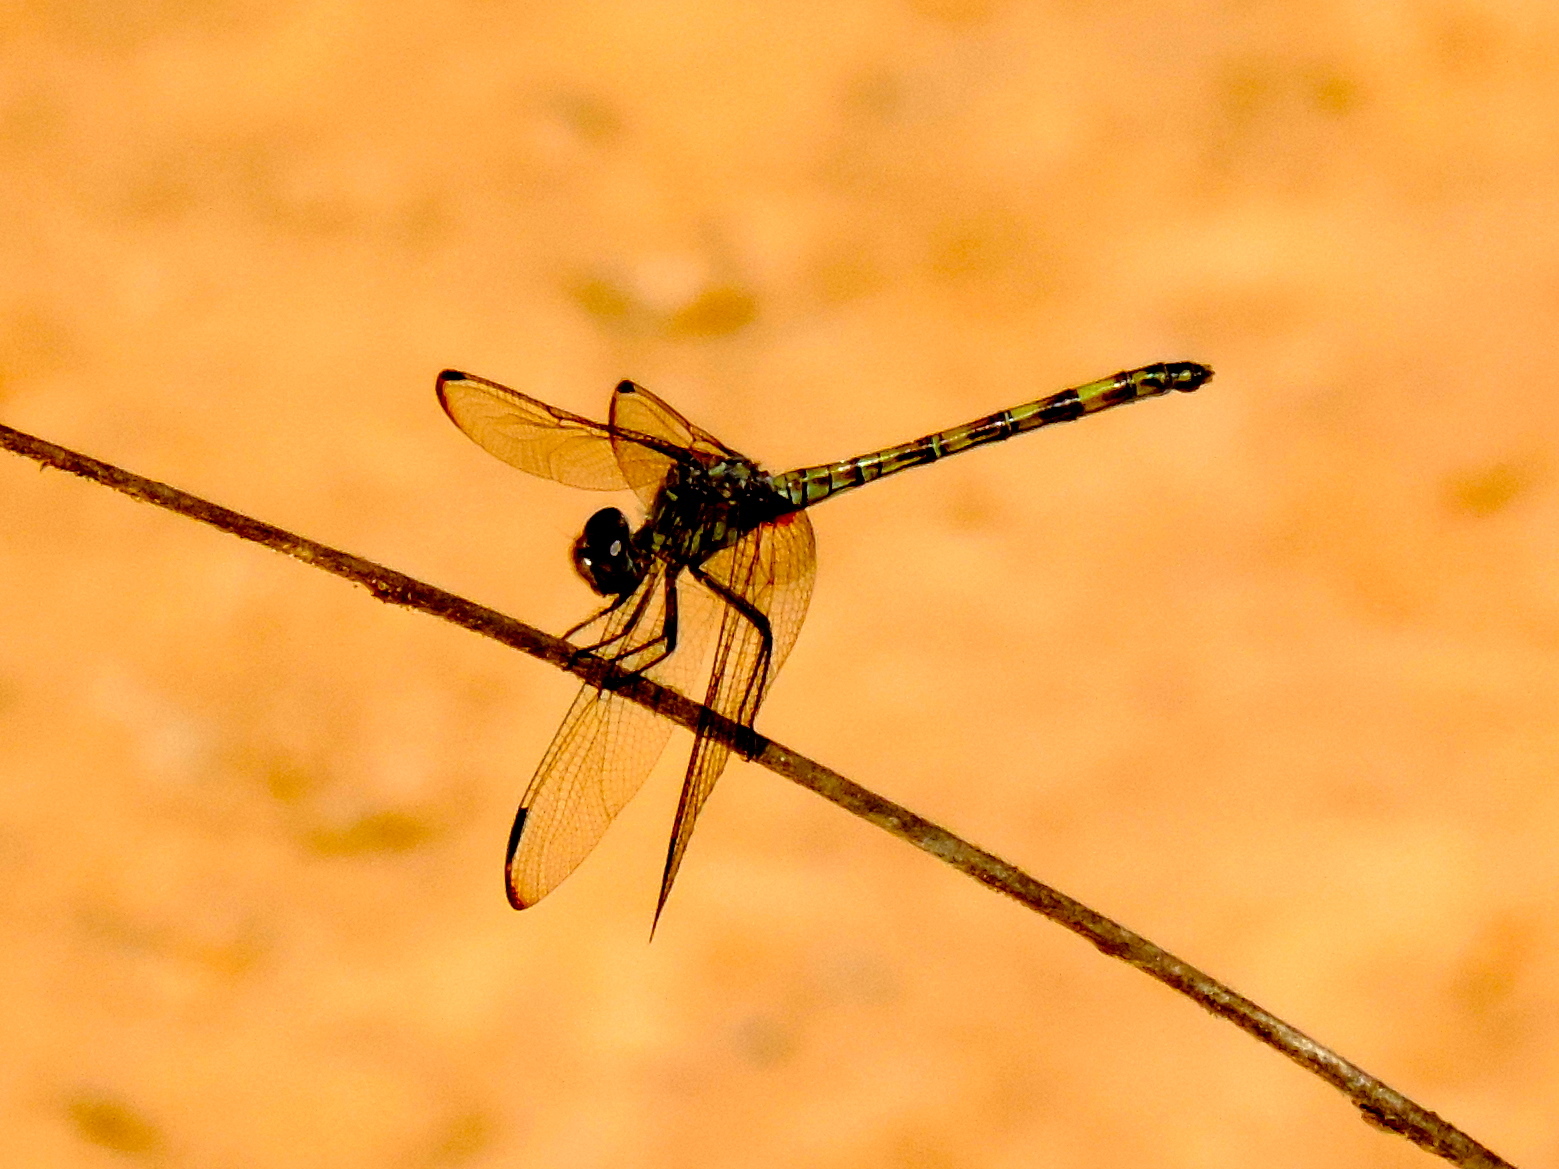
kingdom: Animalia
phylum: Arthropoda
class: Insecta
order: Odonata
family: Libellulidae
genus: Dythemis
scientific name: Dythemis nigrescens
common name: Black setwing
